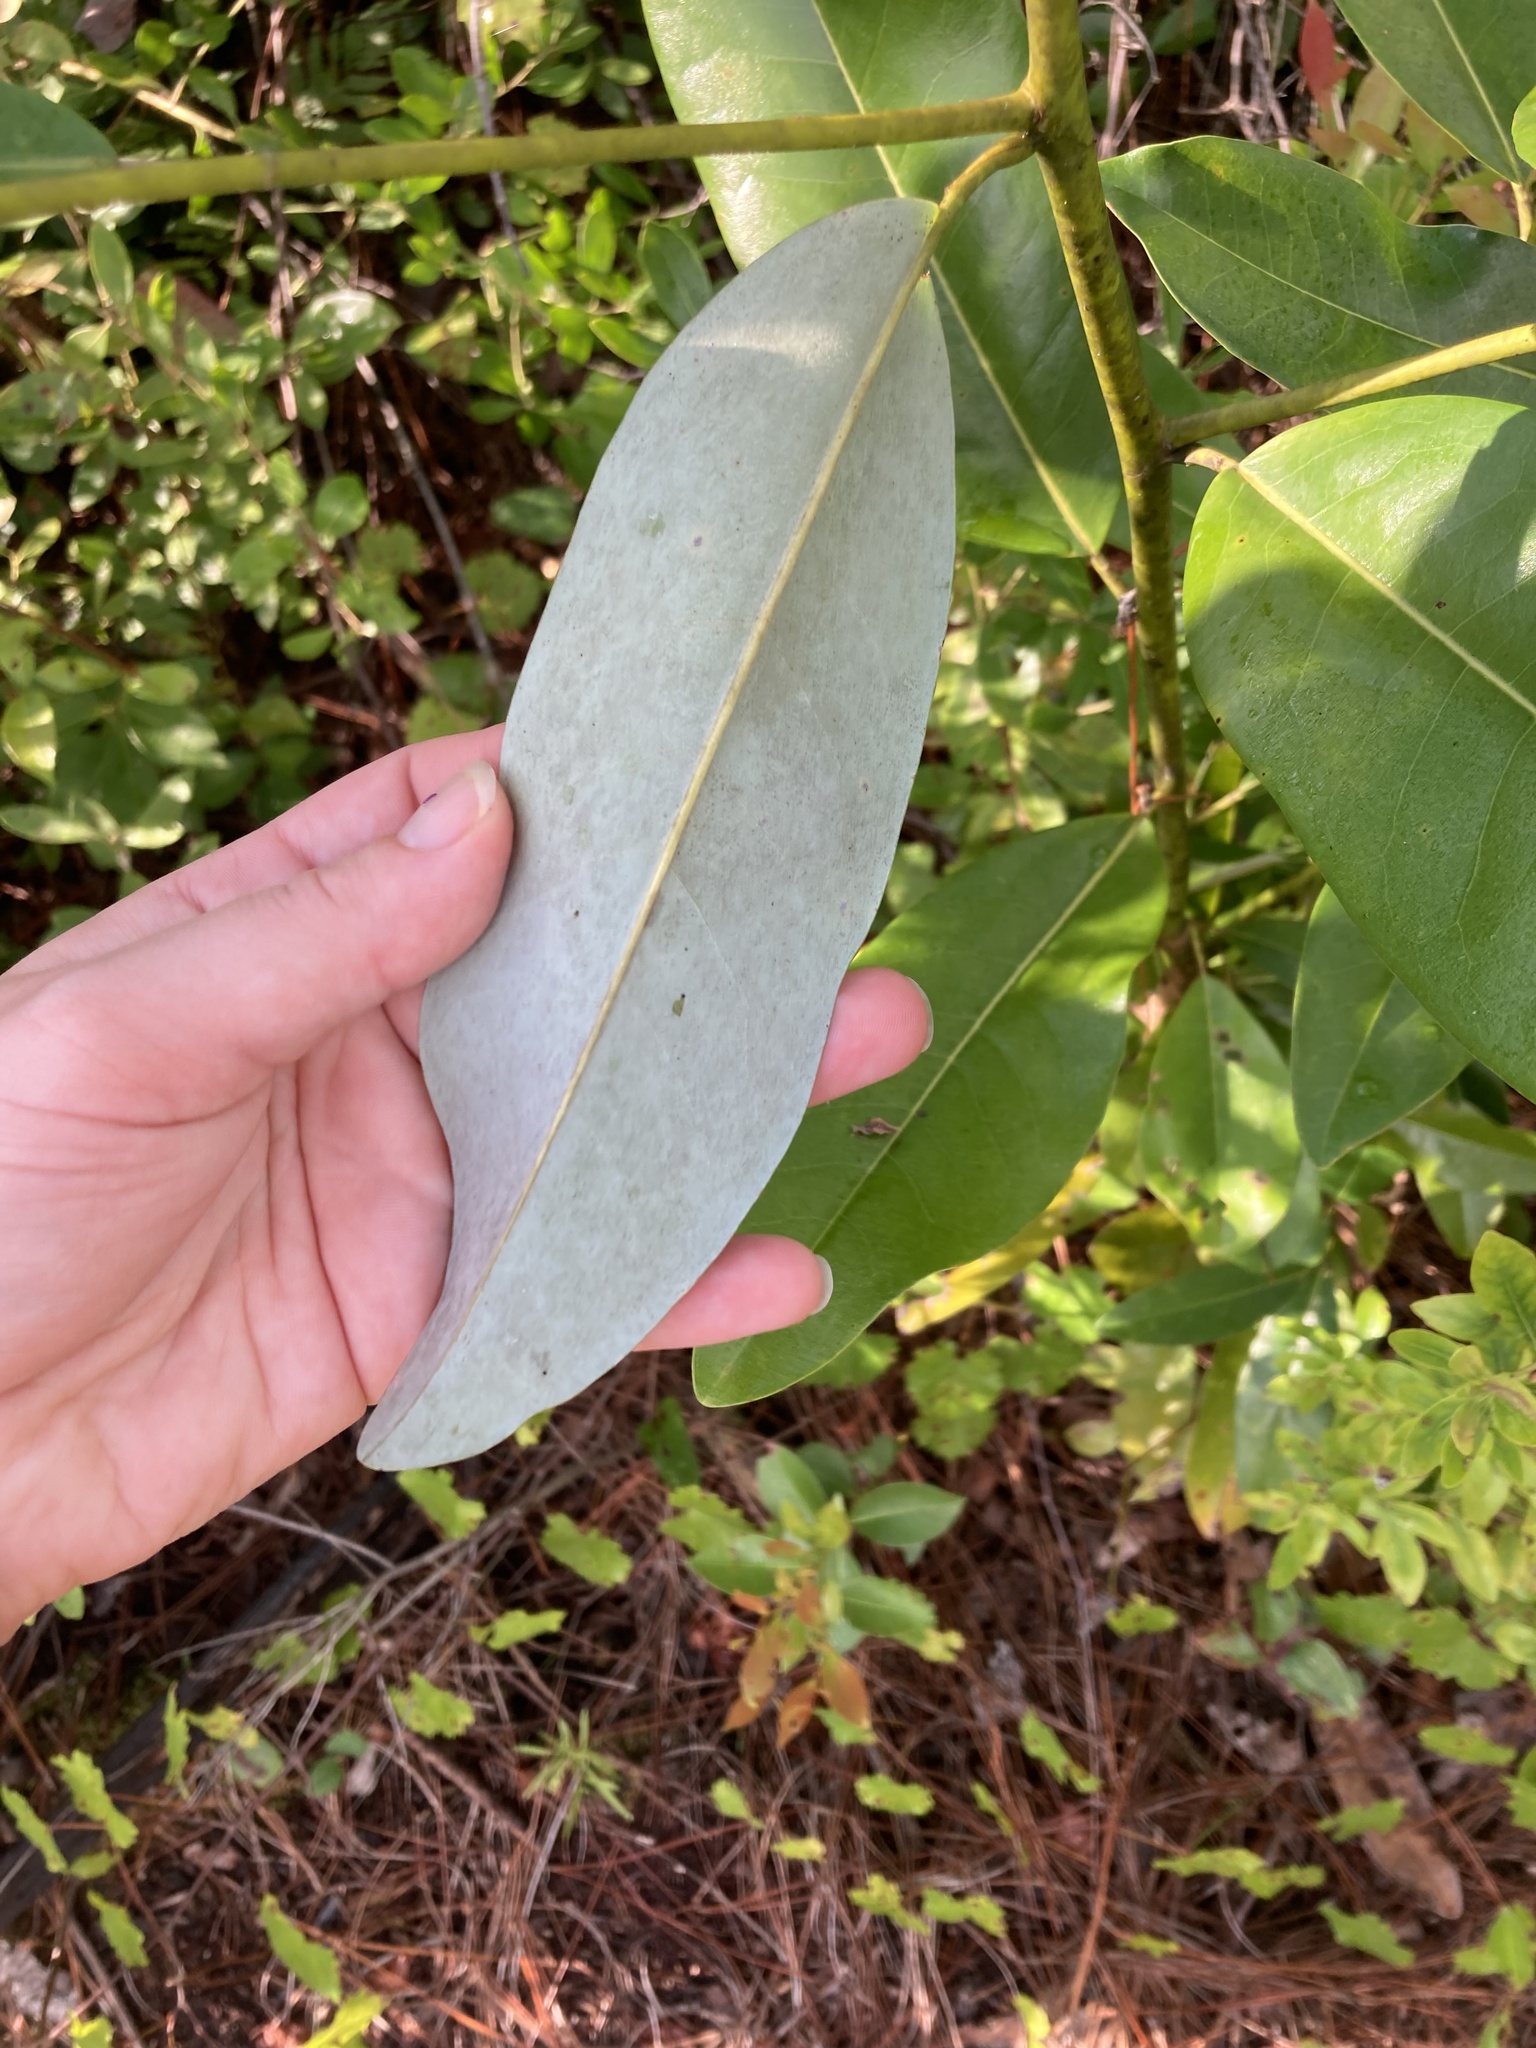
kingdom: Plantae
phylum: Tracheophyta
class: Magnoliopsida
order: Magnoliales
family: Magnoliaceae
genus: Magnolia
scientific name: Magnolia virginiana
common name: Swamp bay
